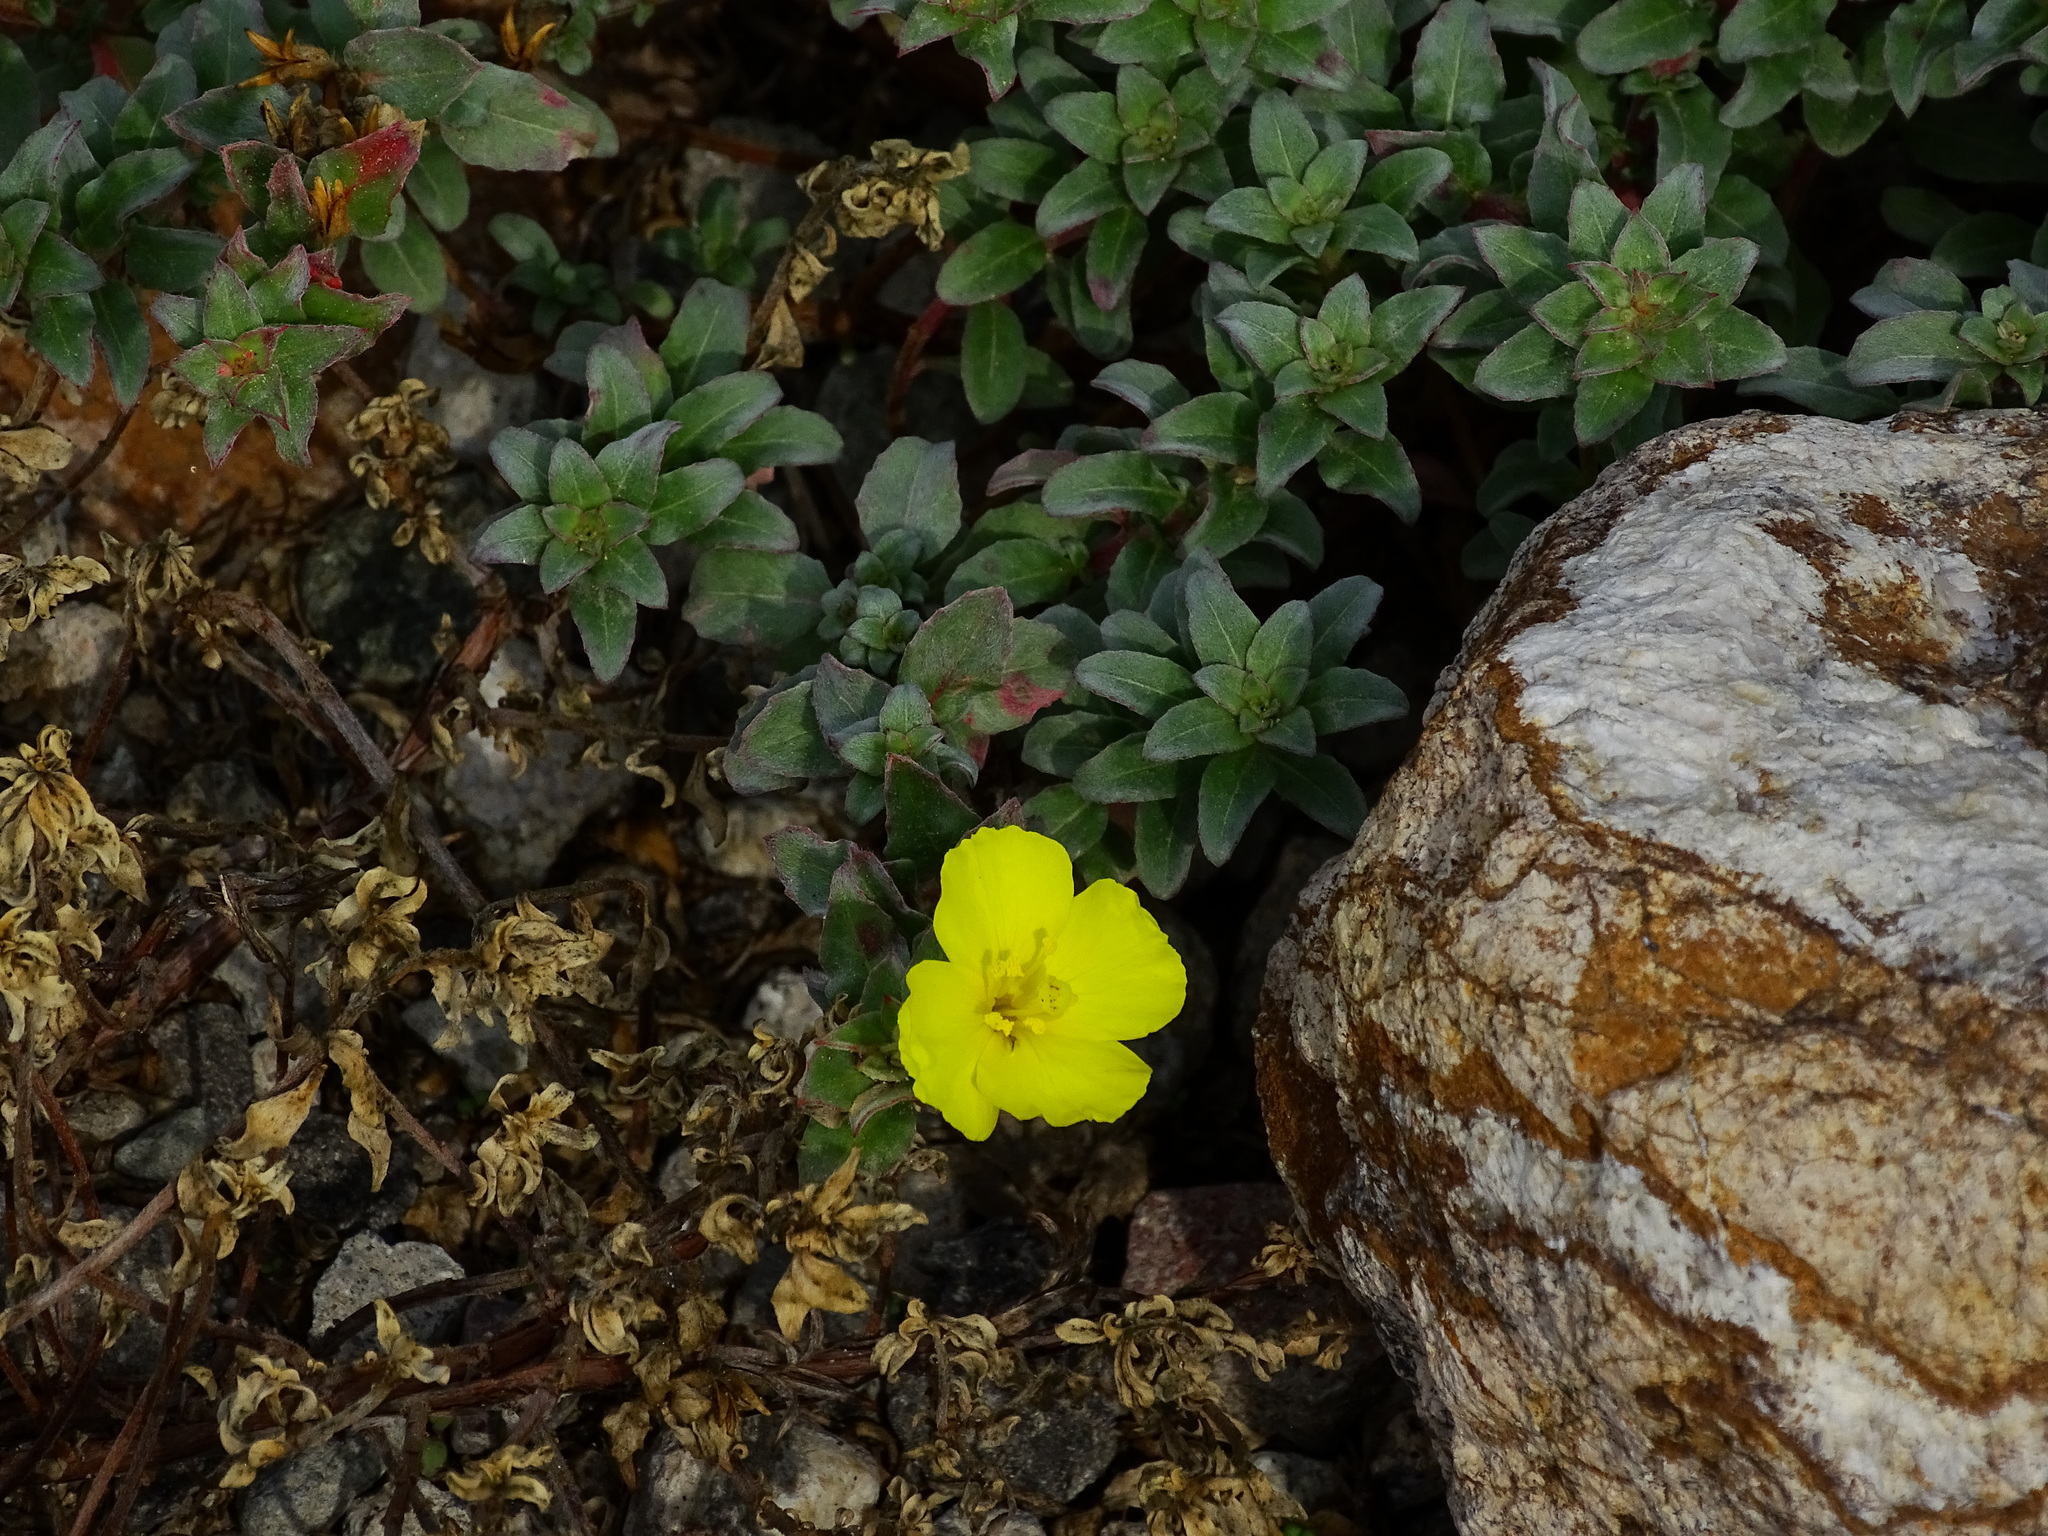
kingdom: Plantae
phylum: Tracheophyta
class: Magnoliopsida
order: Myrtales
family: Onagraceae
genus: Camissoniopsis
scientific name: Camissoniopsis cheiranthifolia
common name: Beach suncup
